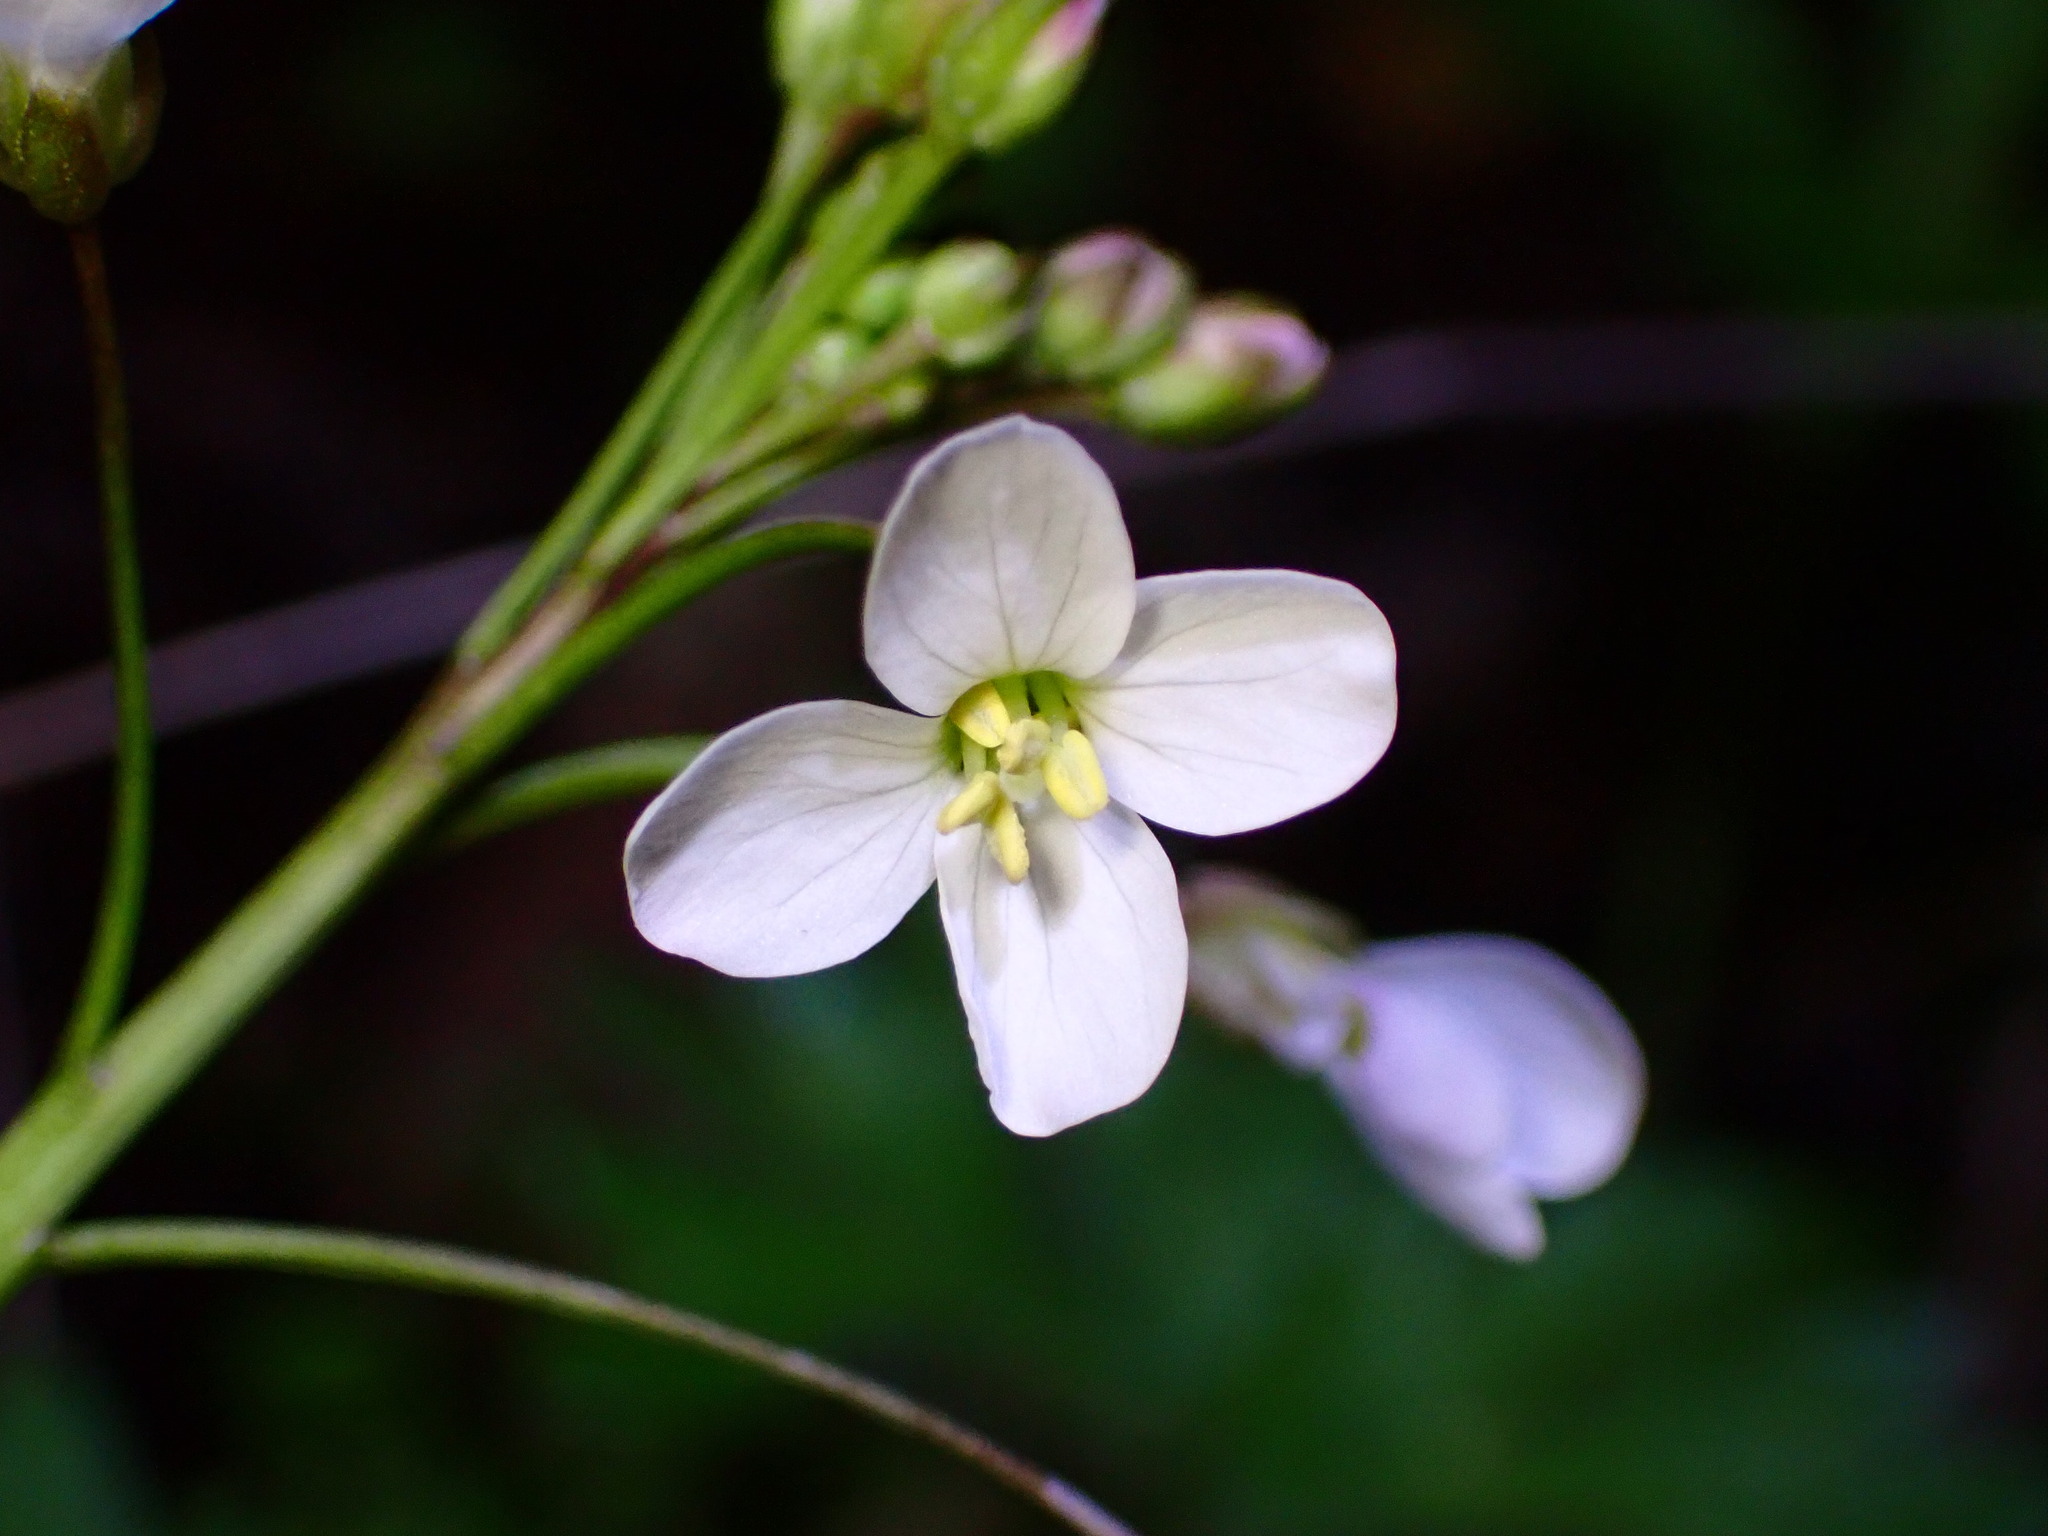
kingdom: Plantae
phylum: Tracheophyta
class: Magnoliopsida
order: Brassicales
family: Brassicaceae
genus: Cardamine
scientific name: Cardamine californica
